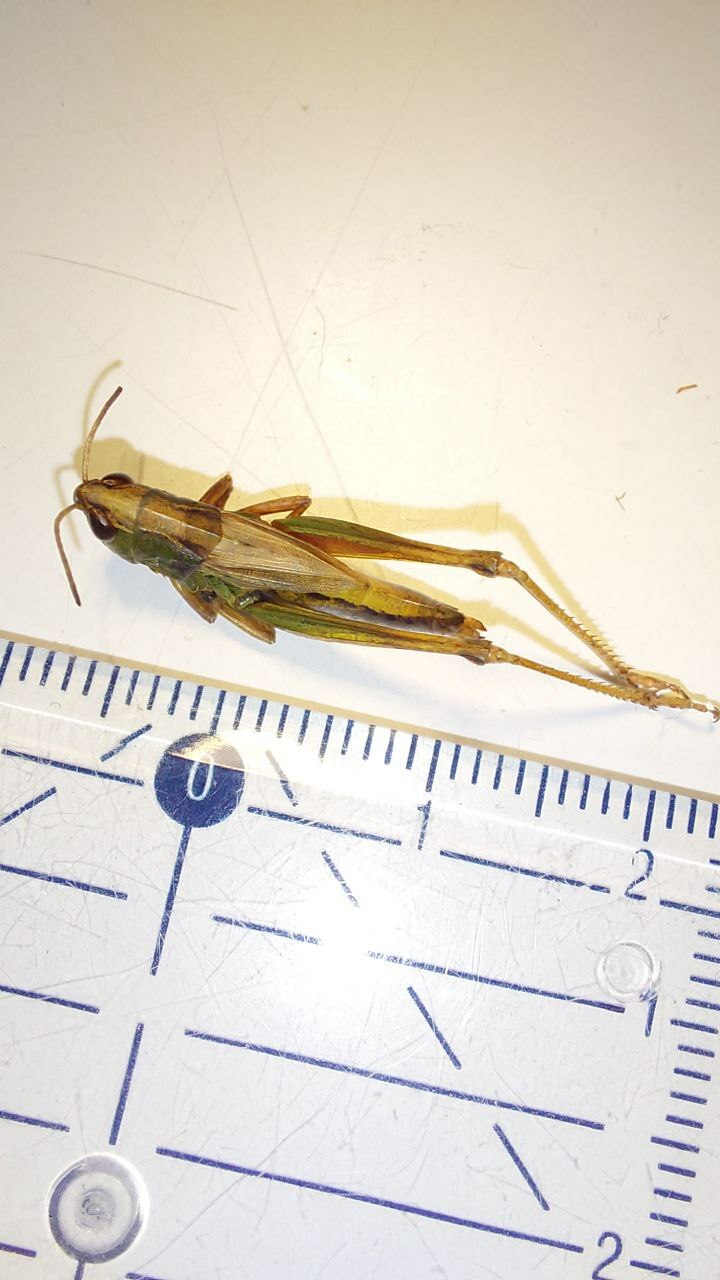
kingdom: Animalia
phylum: Arthropoda
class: Insecta
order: Orthoptera
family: Acrididae
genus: Pseudochorthippus
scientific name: Pseudochorthippus parallelus
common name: Meadow grasshopper
